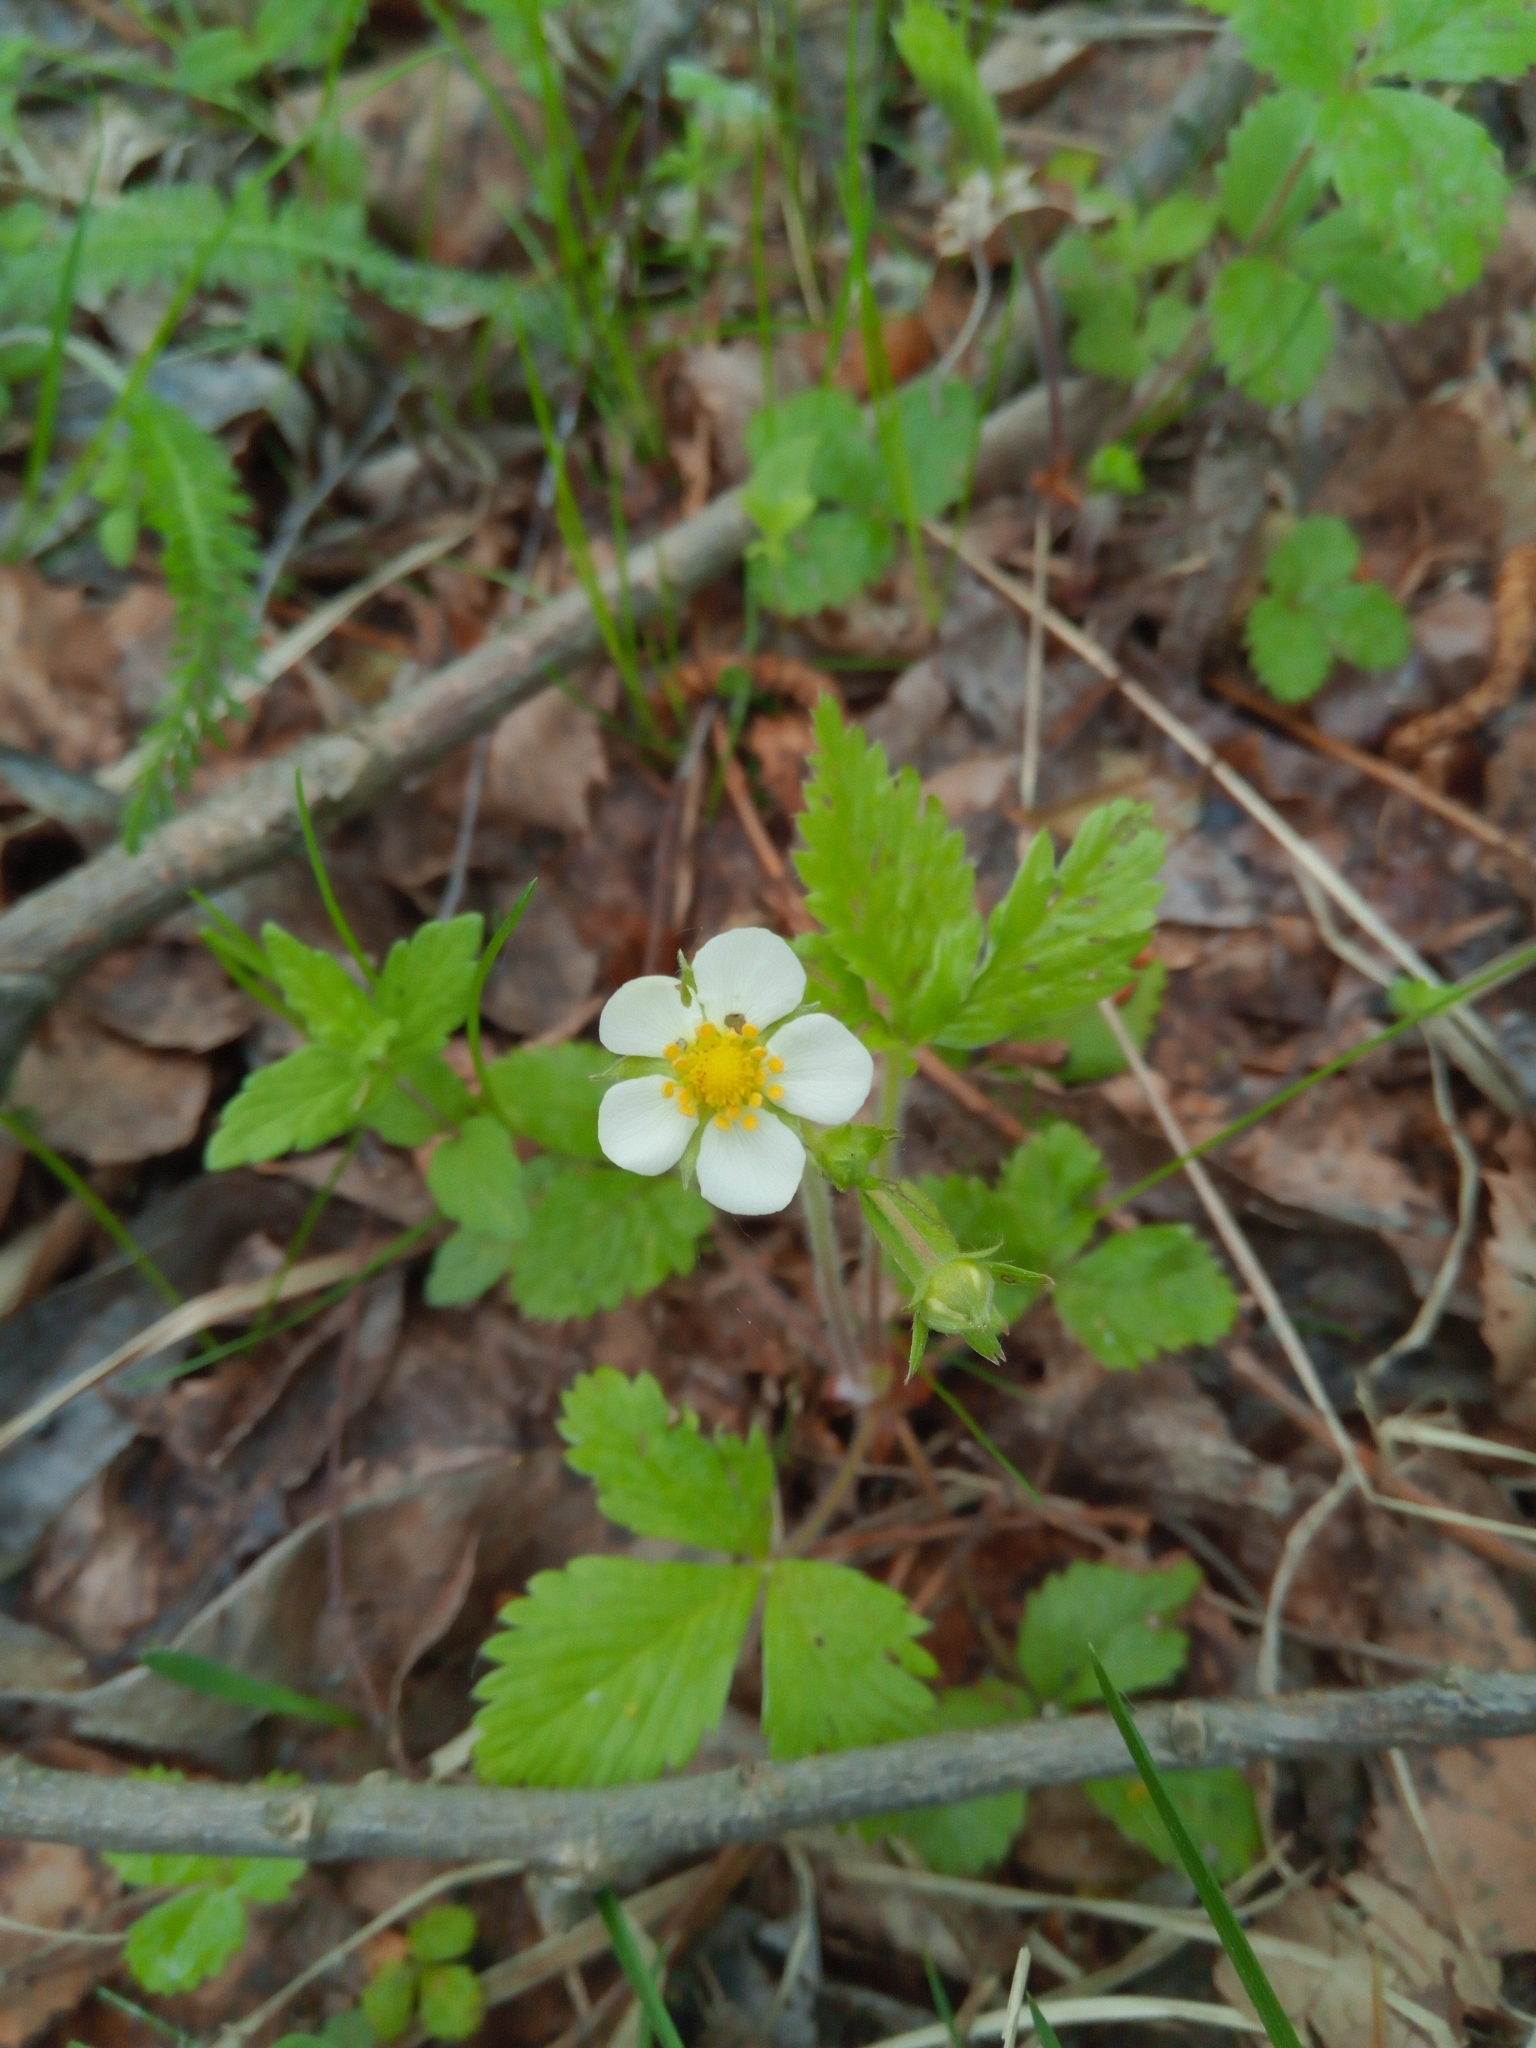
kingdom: Plantae
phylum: Tracheophyta
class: Magnoliopsida
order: Rosales
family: Rosaceae
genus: Fragaria
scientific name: Fragaria vesca
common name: Wild strawberry
